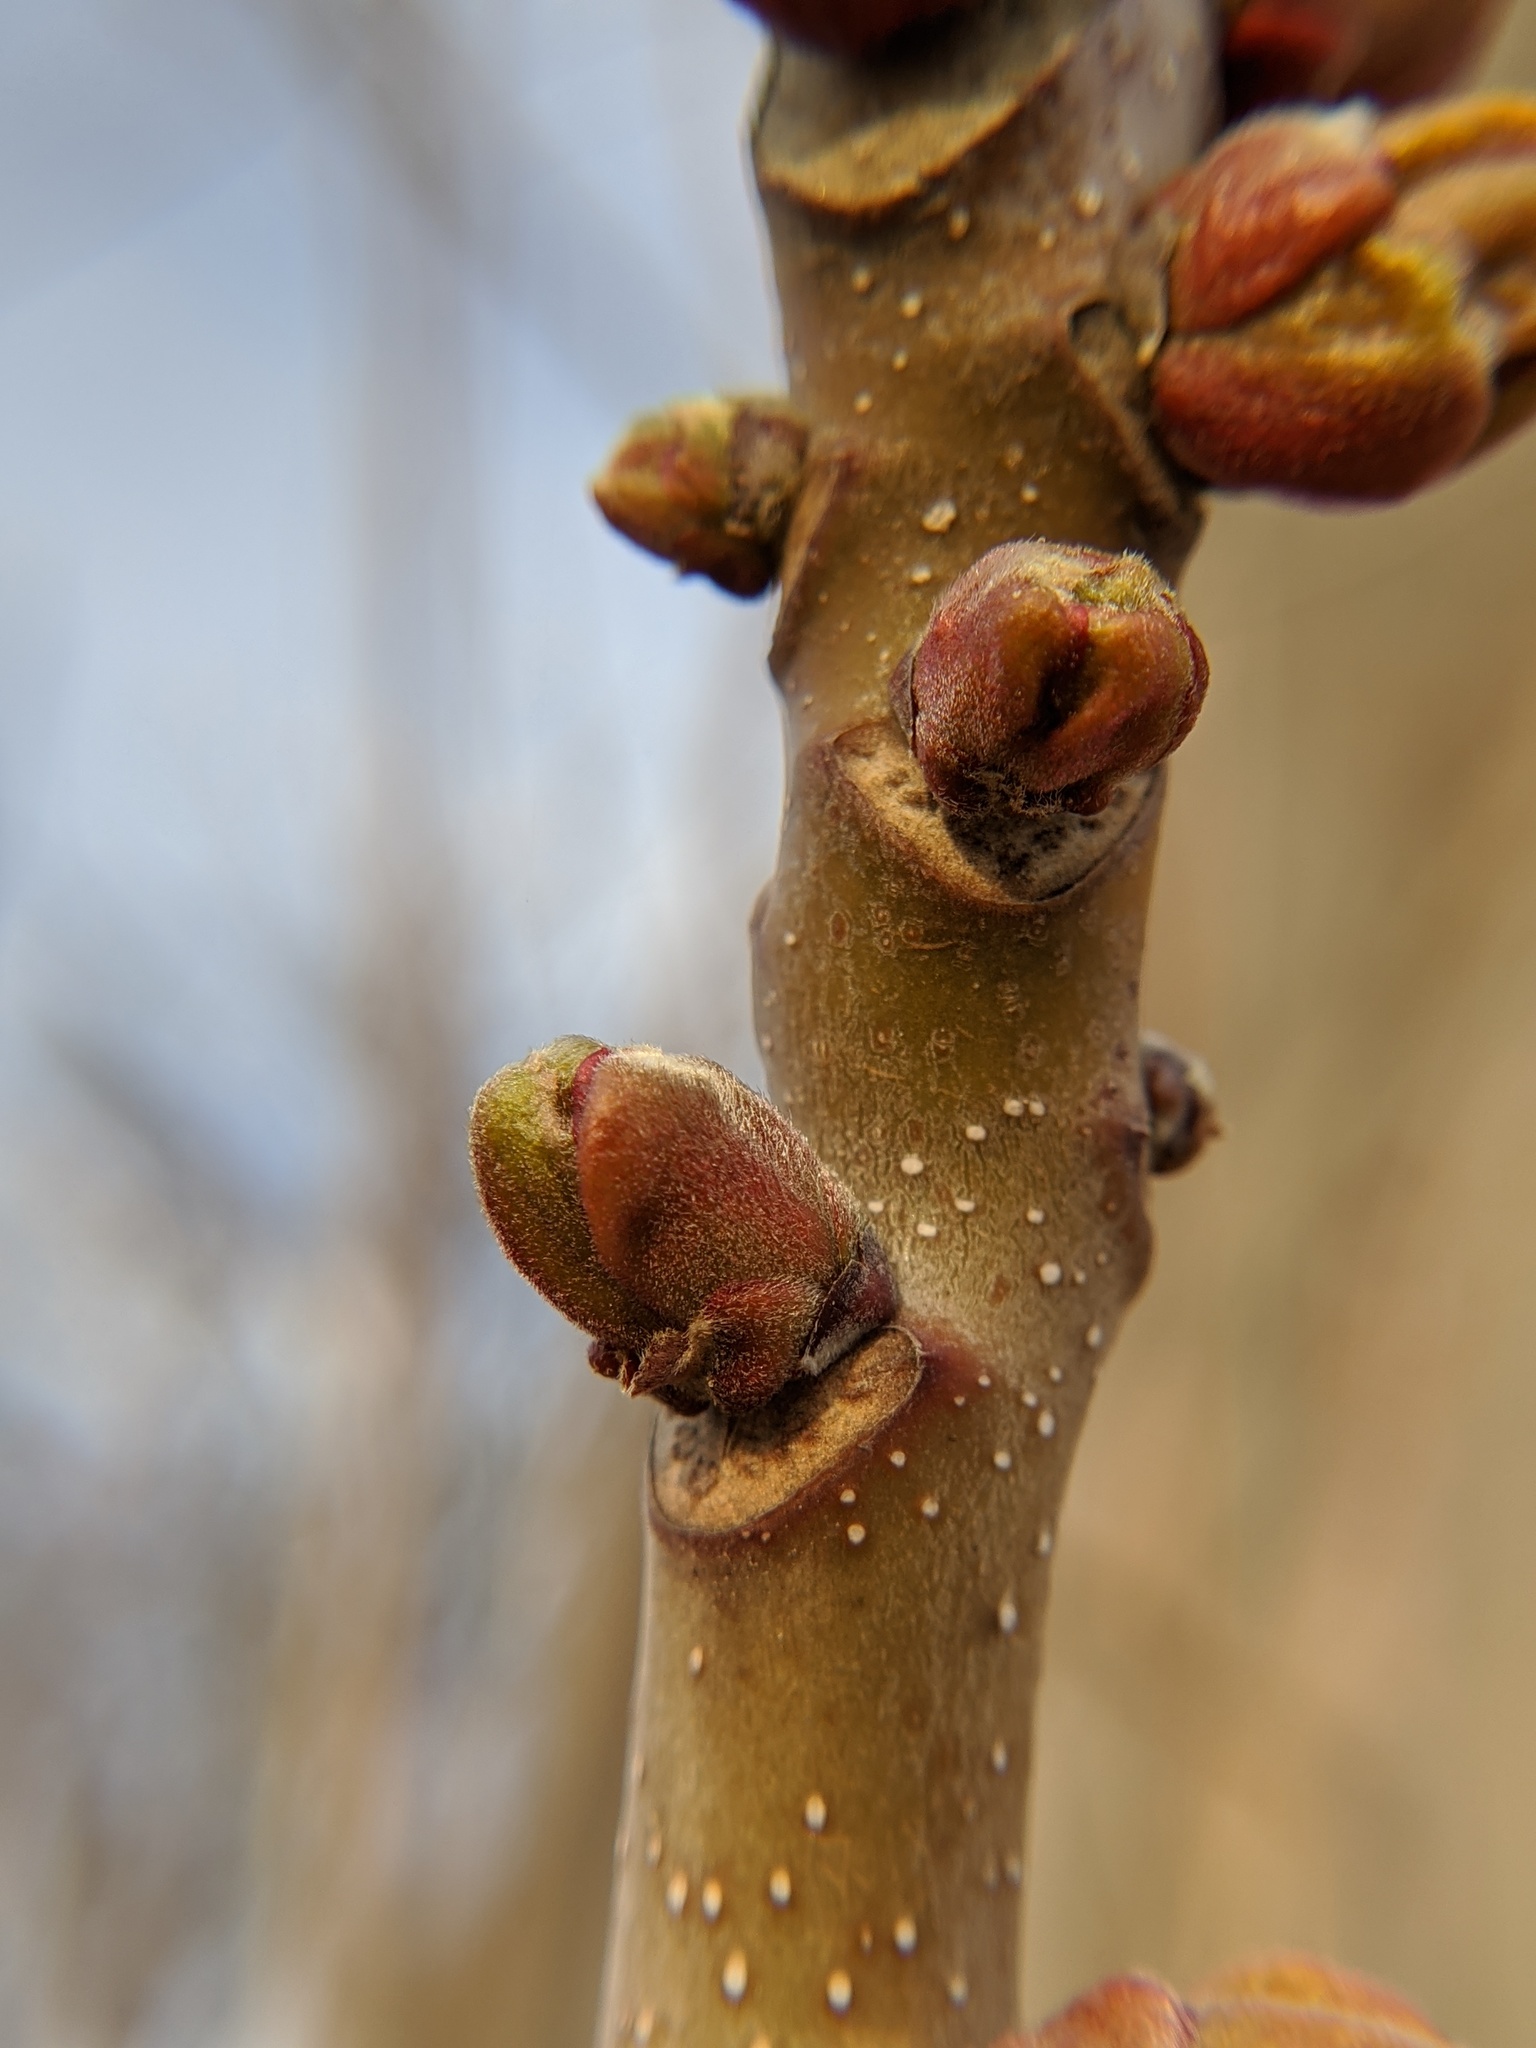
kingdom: Plantae
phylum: Tracheophyta
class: Magnoliopsida
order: Sapindales
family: Simaroubaceae
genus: Ailanthus
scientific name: Ailanthus altissima
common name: Tree-of-heaven
